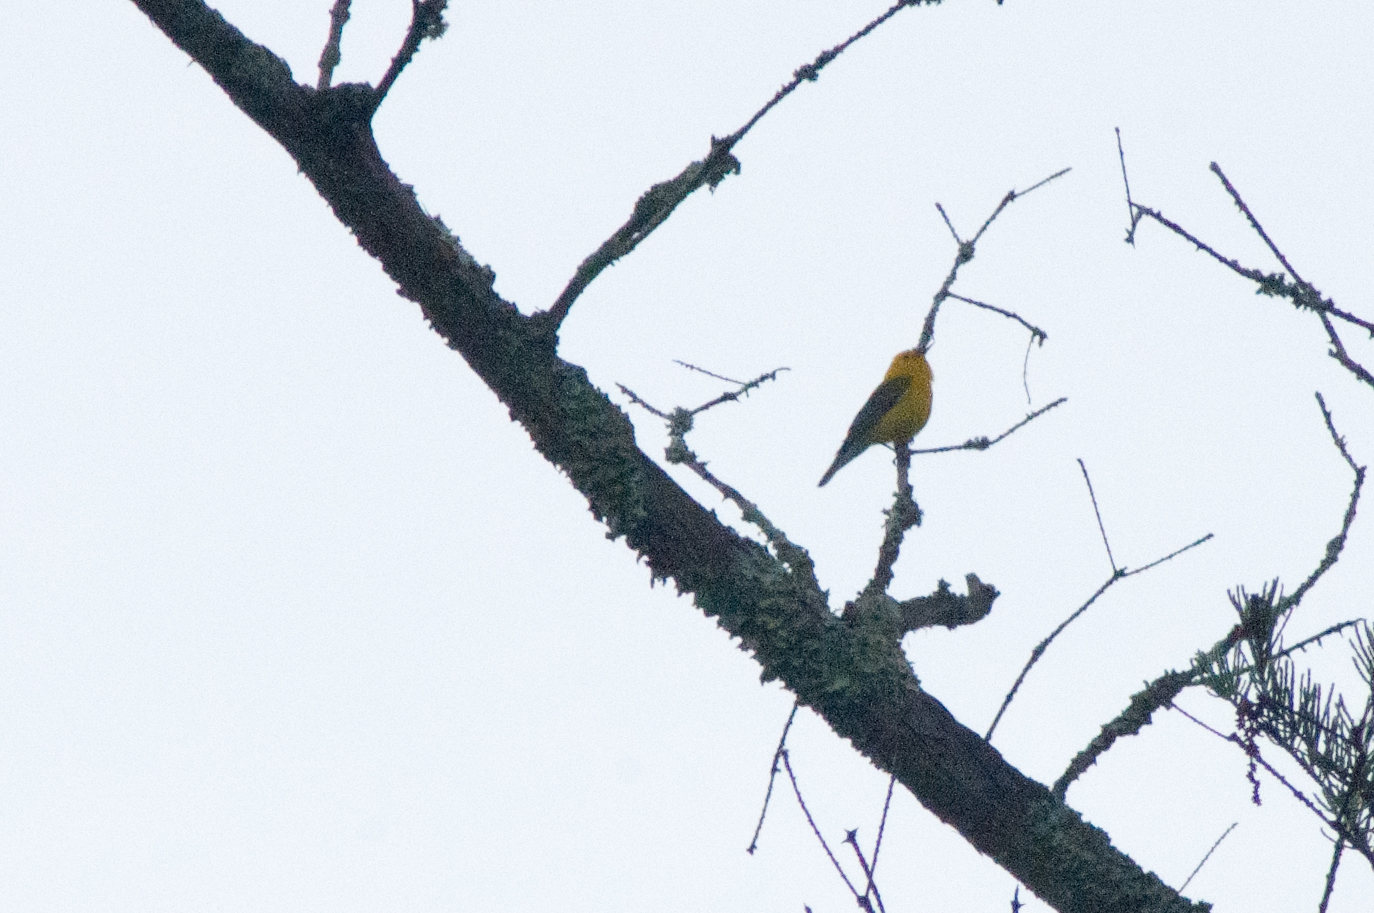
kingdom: Animalia
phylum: Chordata
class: Aves
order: Passeriformes
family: Parulidae
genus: Protonotaria
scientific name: Protonotaria citrea
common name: Prothonotary warbler
